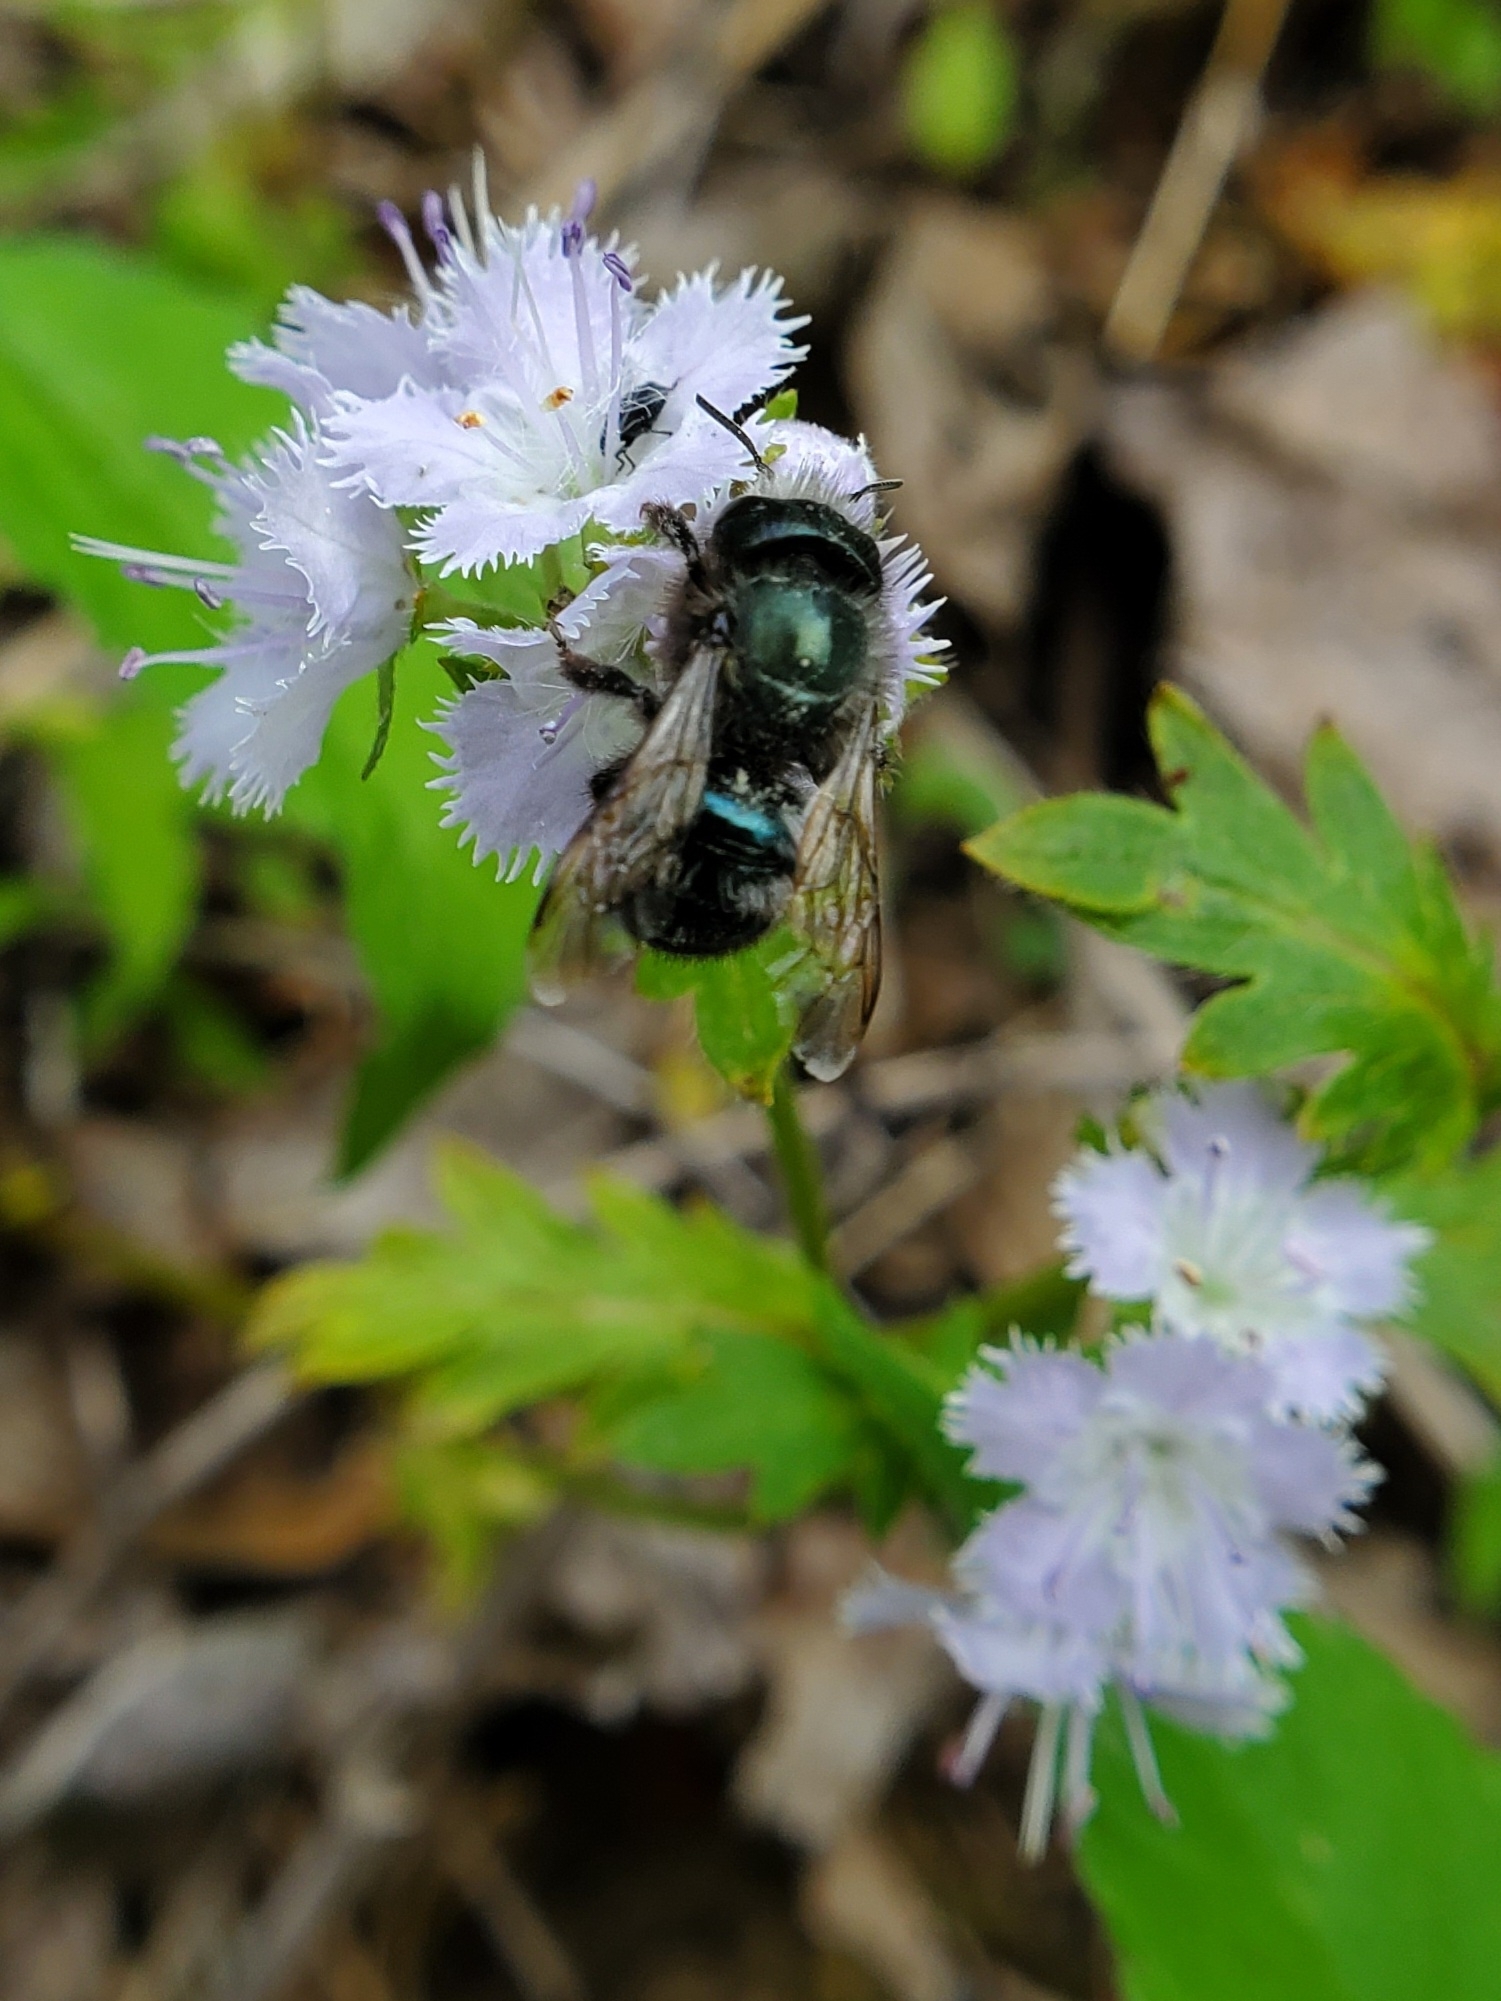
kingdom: Animalia
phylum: Arthropoda
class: Insecta
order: Hymenoptera
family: Megachilidae
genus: Osmia
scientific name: Osmia lignaria
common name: Blue orchard bee
